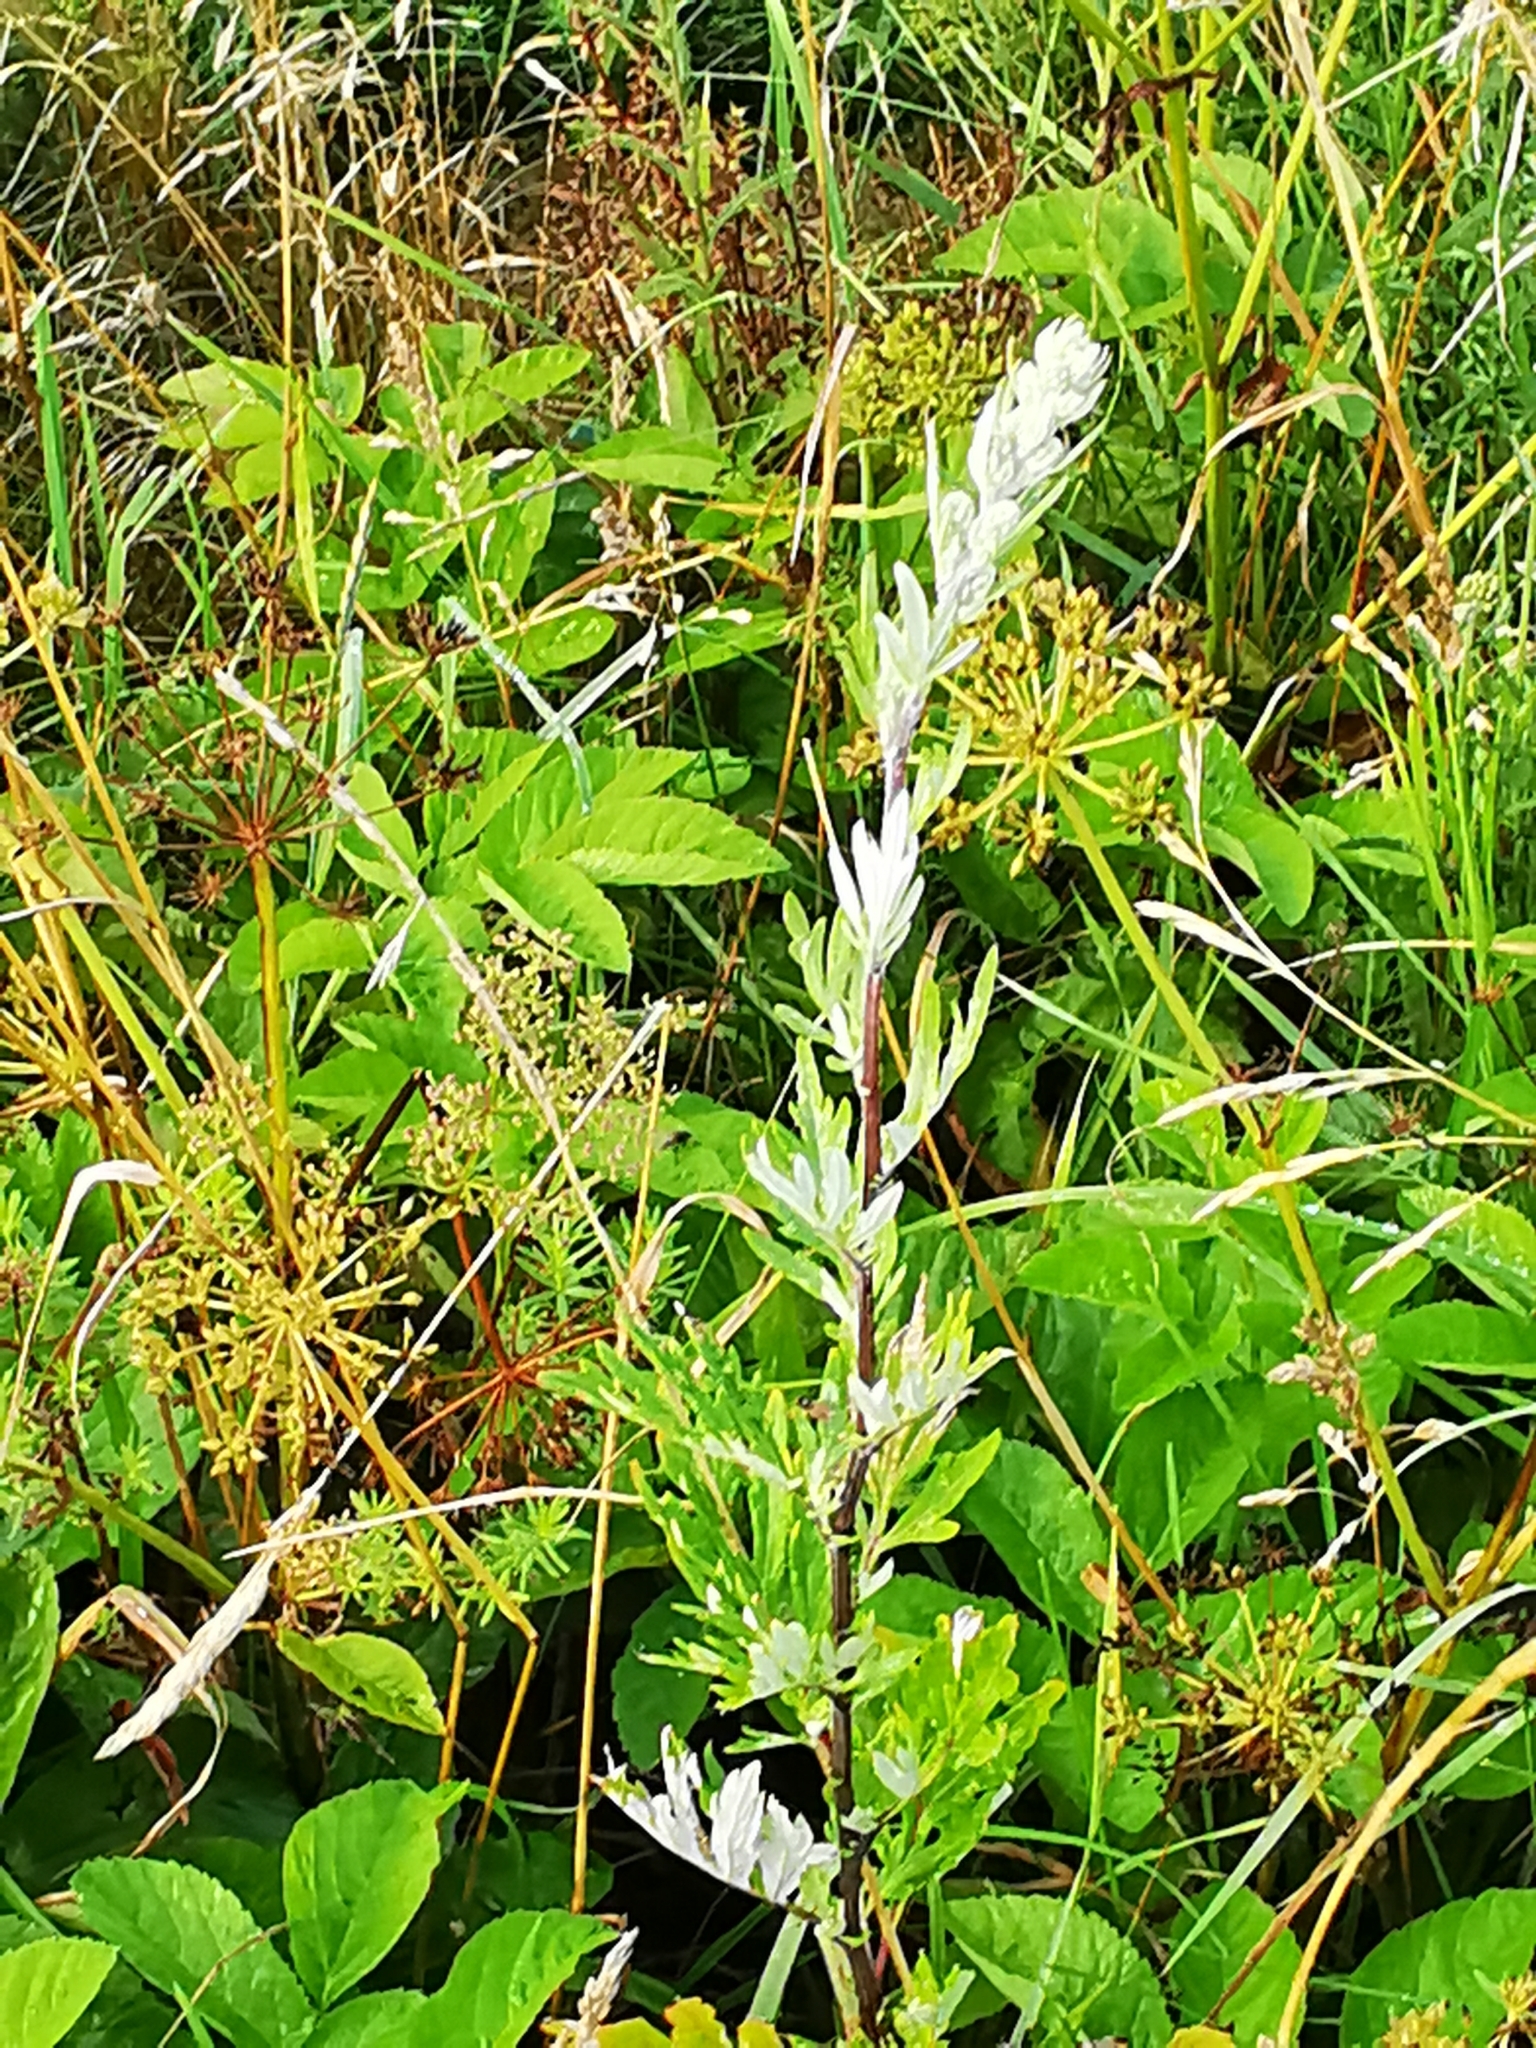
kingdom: Plantae
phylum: Tracheophyta
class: Magnoliopsida
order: Asterales
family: Asteraceae
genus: Artemisia
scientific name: Artemisia vulgaris
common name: Mugwort
